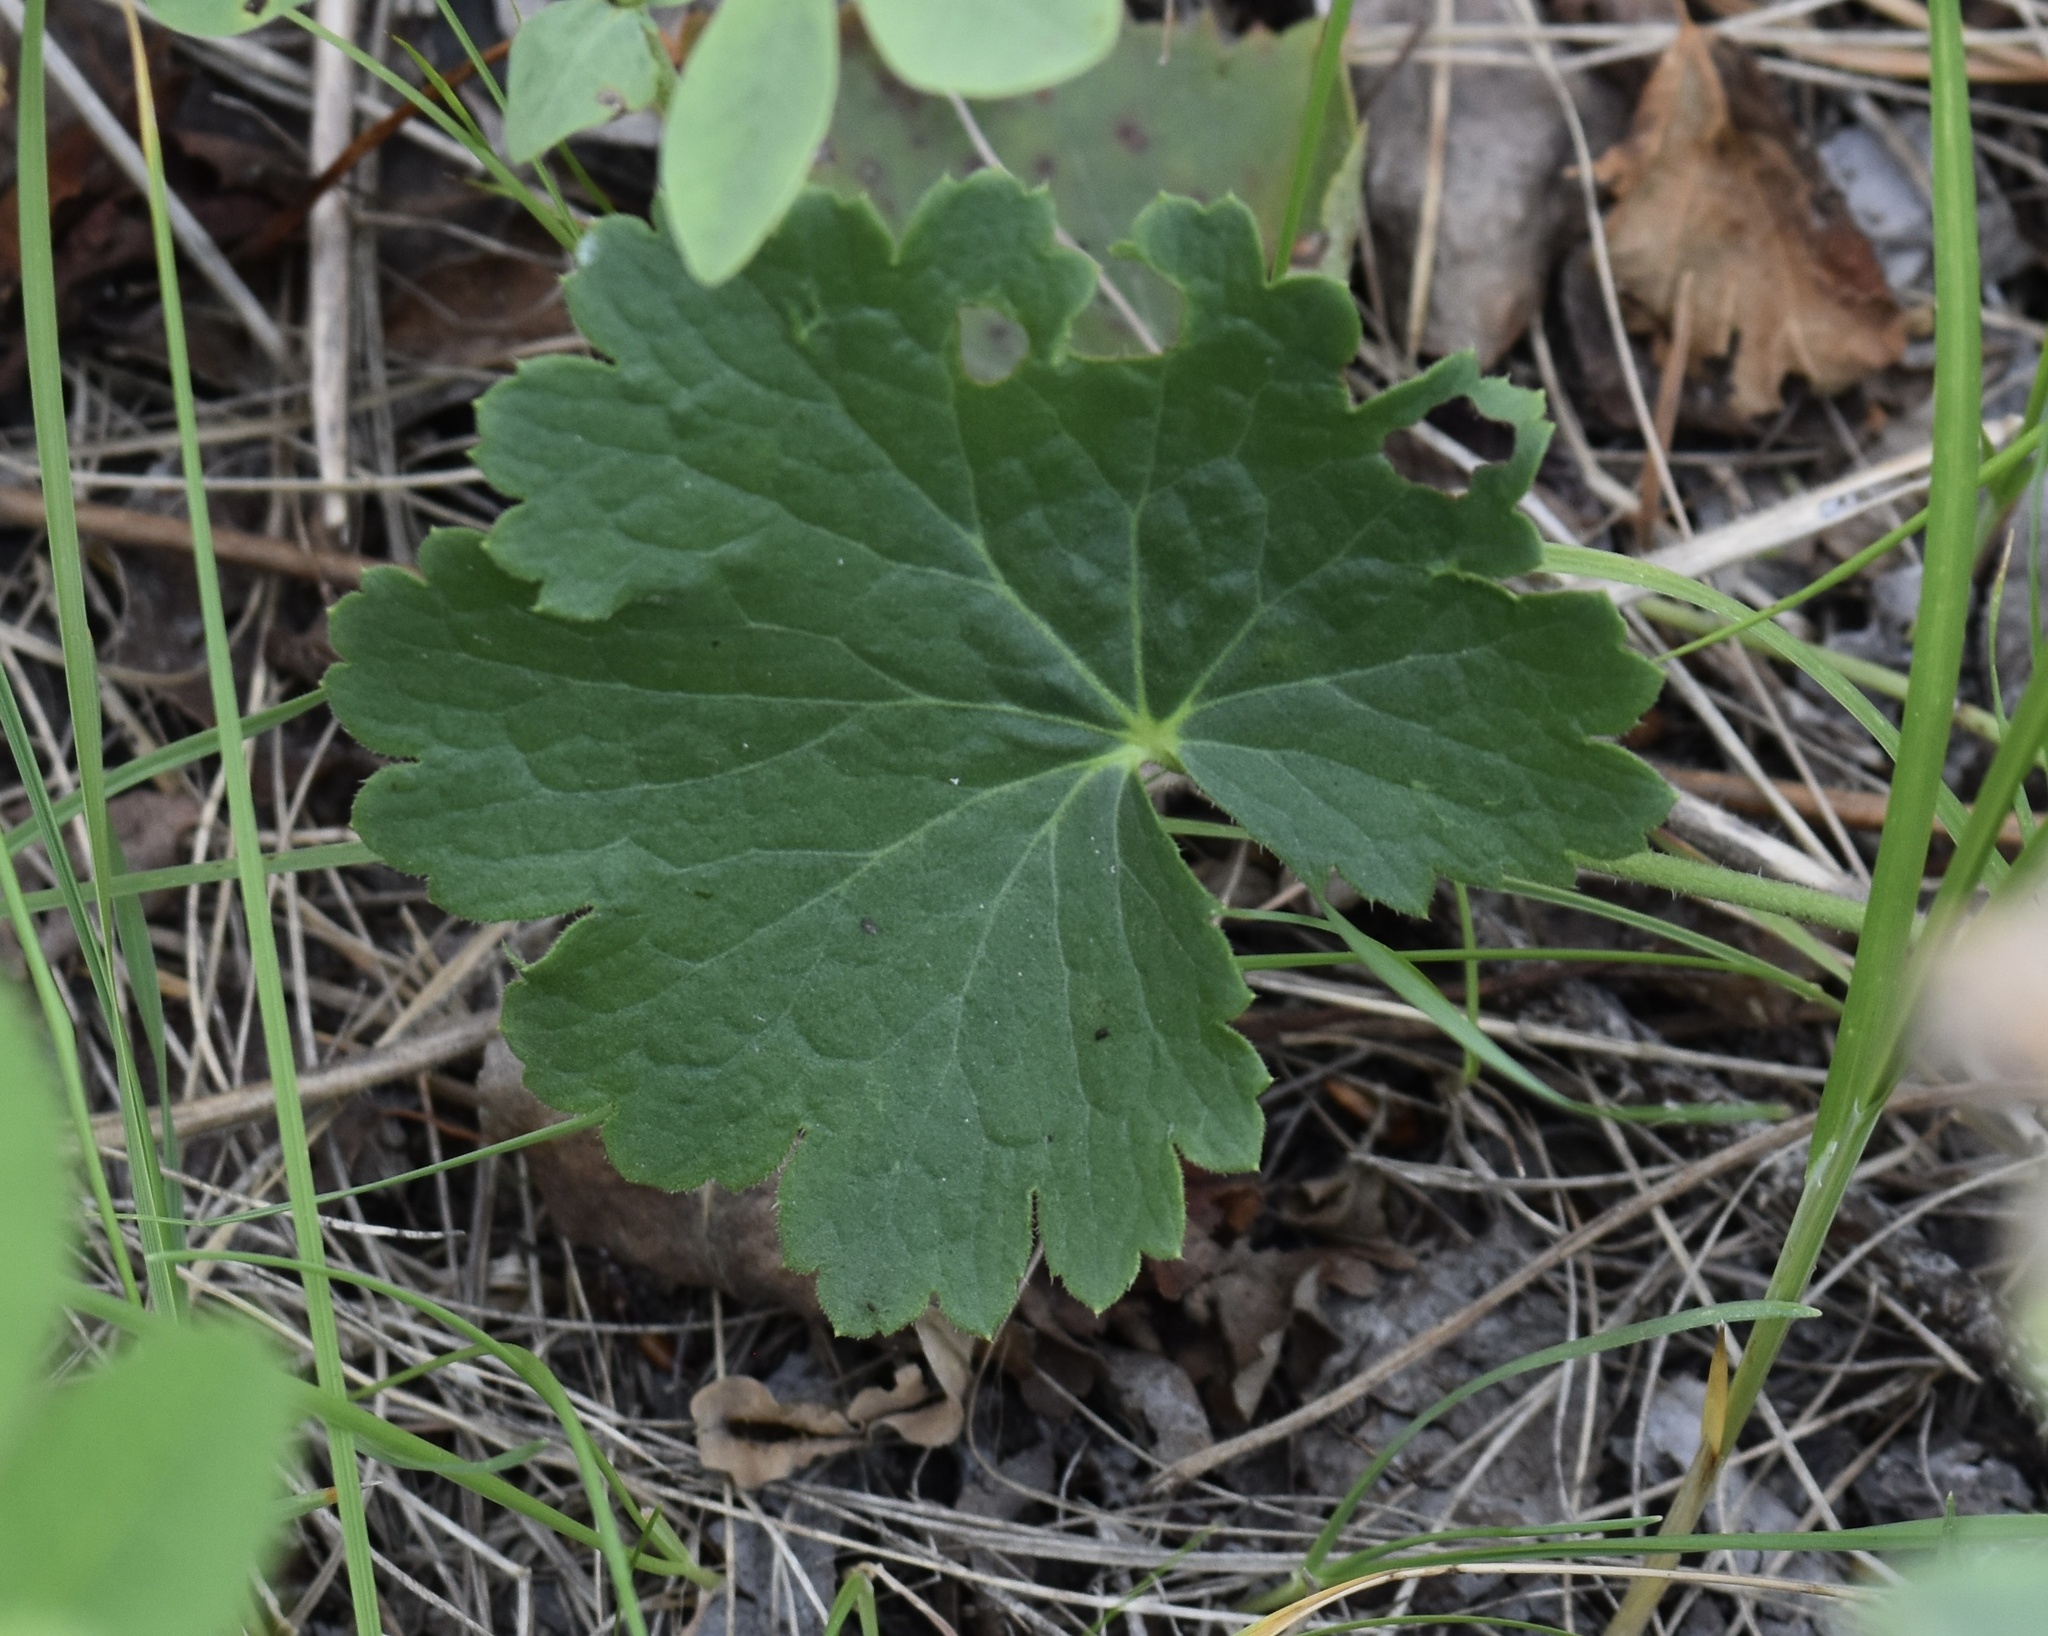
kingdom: Plantae
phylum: Tracheophyta
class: Magnoliopsida
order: Saxifragales
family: Saxifragaceae
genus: Heuchera
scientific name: Heuchera richardsonii
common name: Richardson's alumroot
